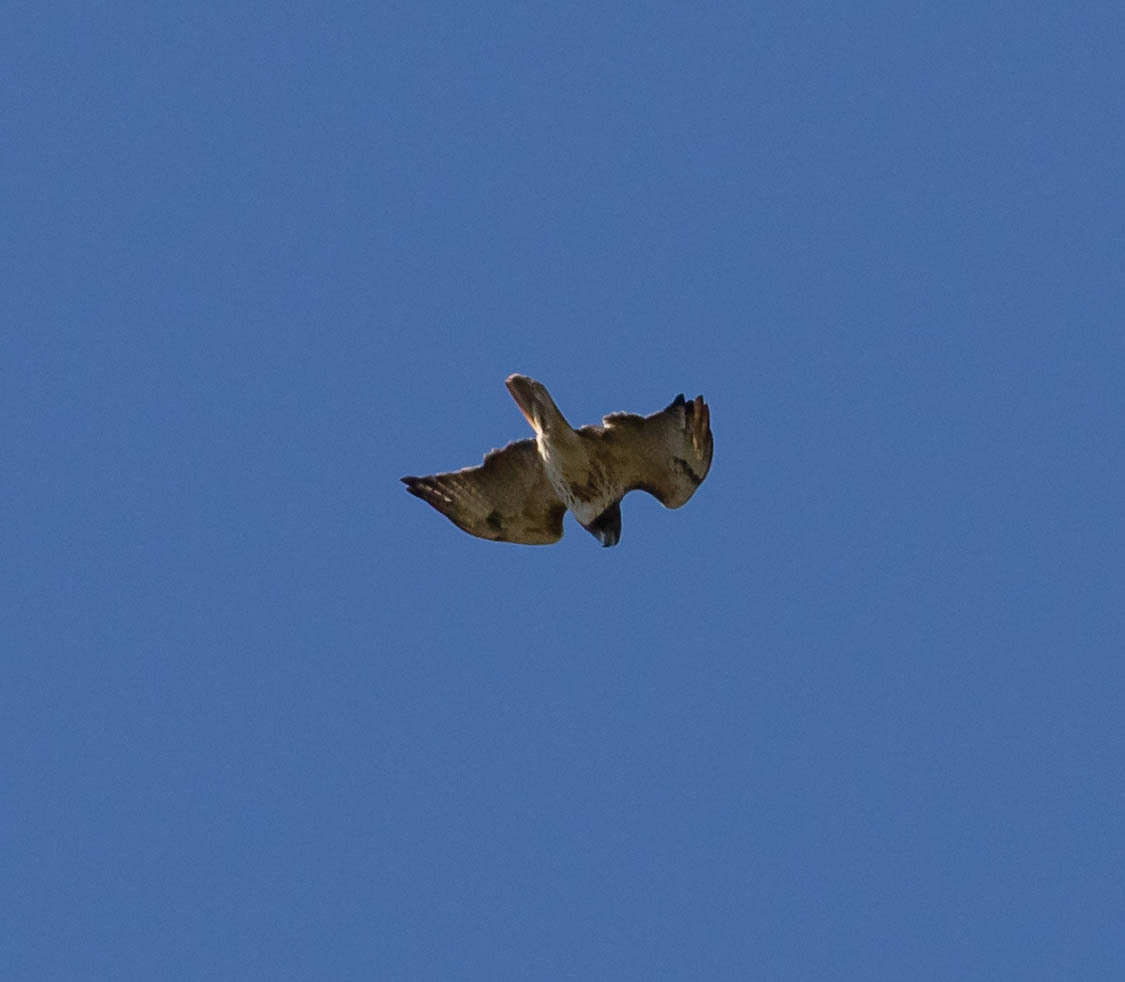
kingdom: Animalia
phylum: Chordata
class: Aves
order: Accipitriformes
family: Accipitridae
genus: Buteo
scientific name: Buteo jamaicensis
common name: Red-tailed hawk
